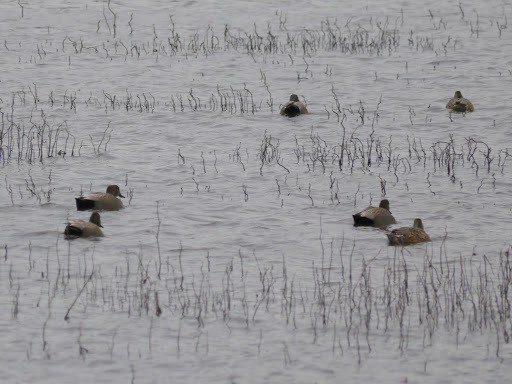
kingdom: Animalia
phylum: Chordata
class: Aves
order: Anseriformes
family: Anatidae
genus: Mareca
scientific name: Mareca strepera
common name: Gadwall
